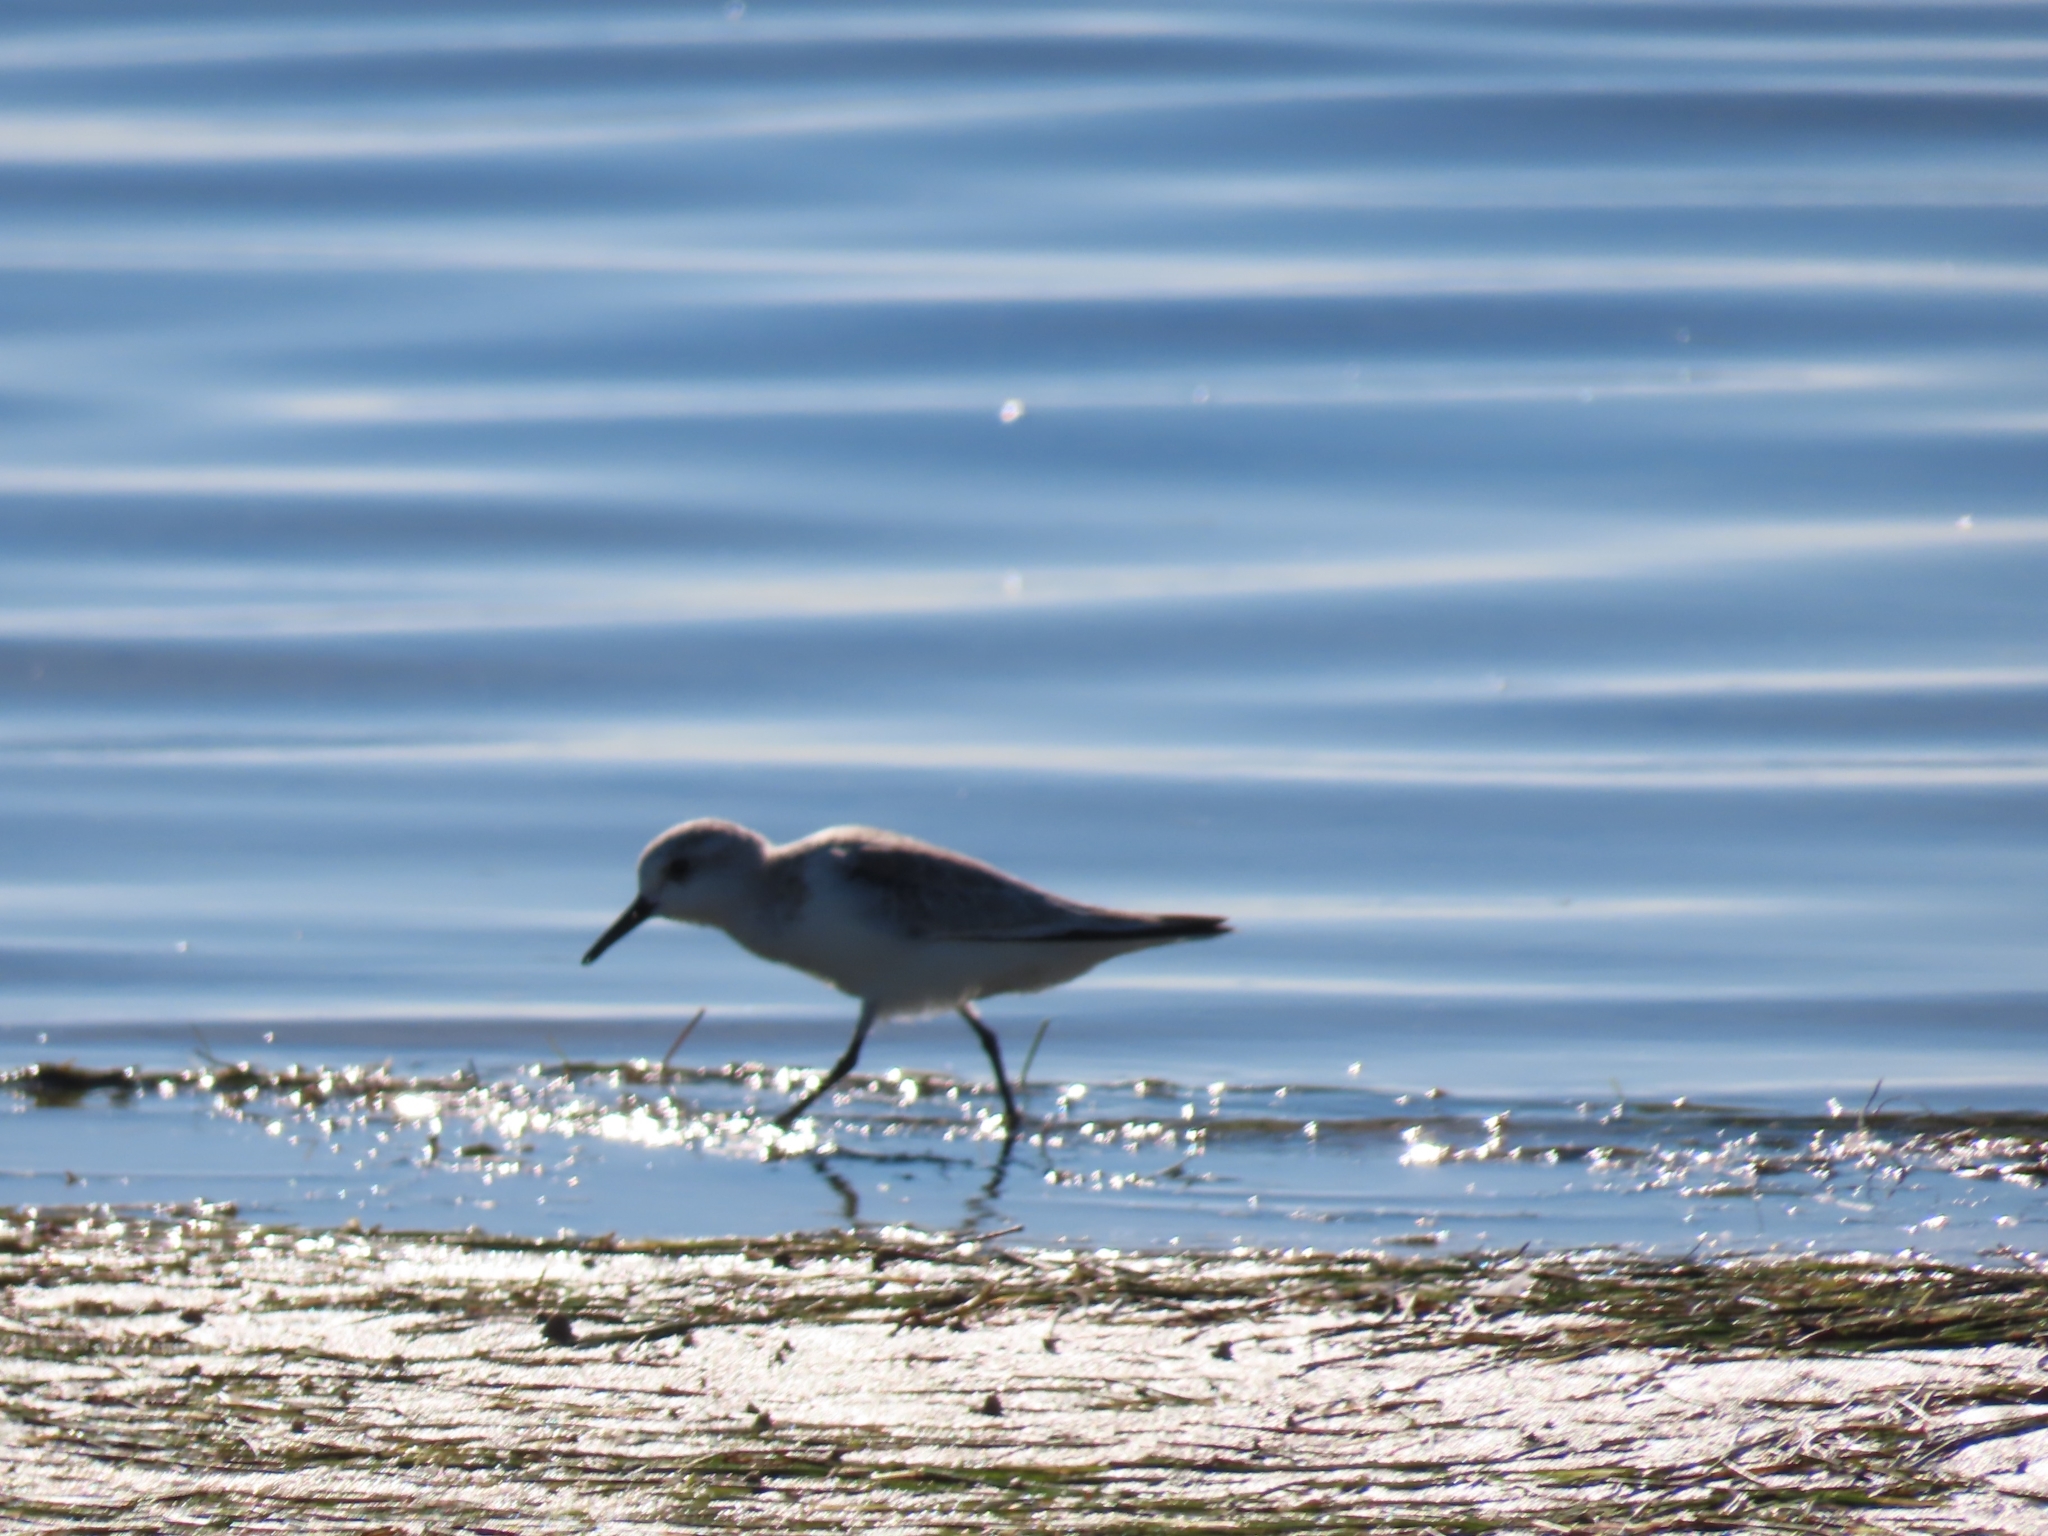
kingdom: Animalia
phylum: Chordata
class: Aves
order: Charadriiformes
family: Scolopacidae
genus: Calidris
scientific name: Calidris alba
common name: Sanderling
